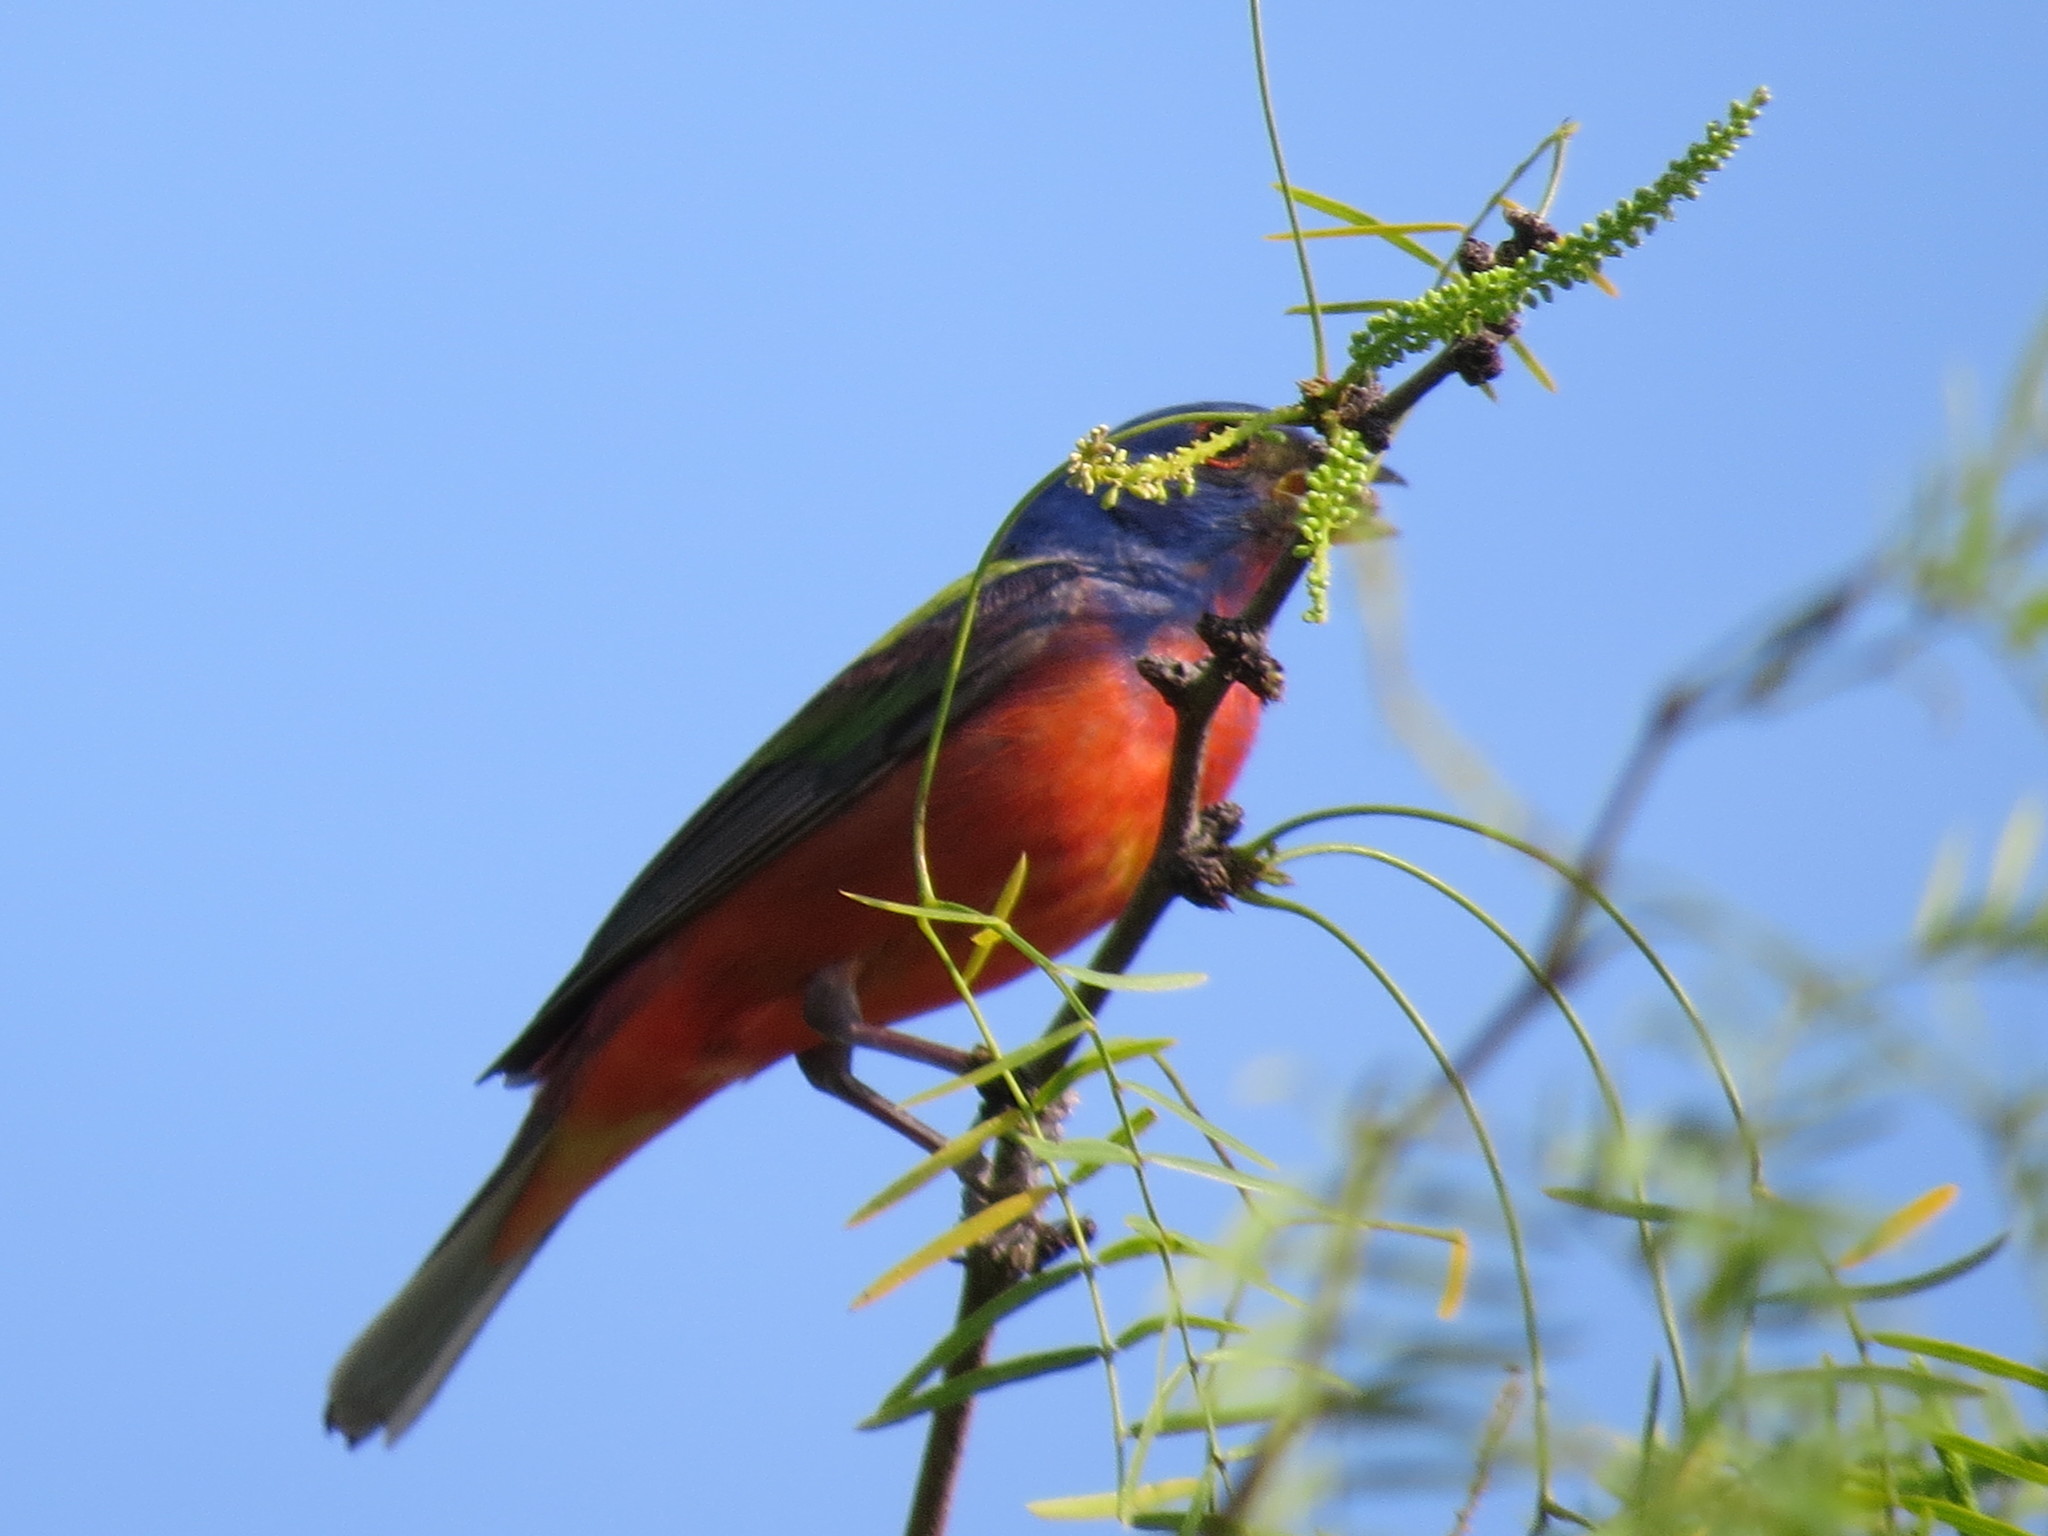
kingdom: Animalia
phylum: Chordata
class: Aves
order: Passeriformes
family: Cardinalidae
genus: Passerina
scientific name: Passerina ciris
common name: Painted bunting
